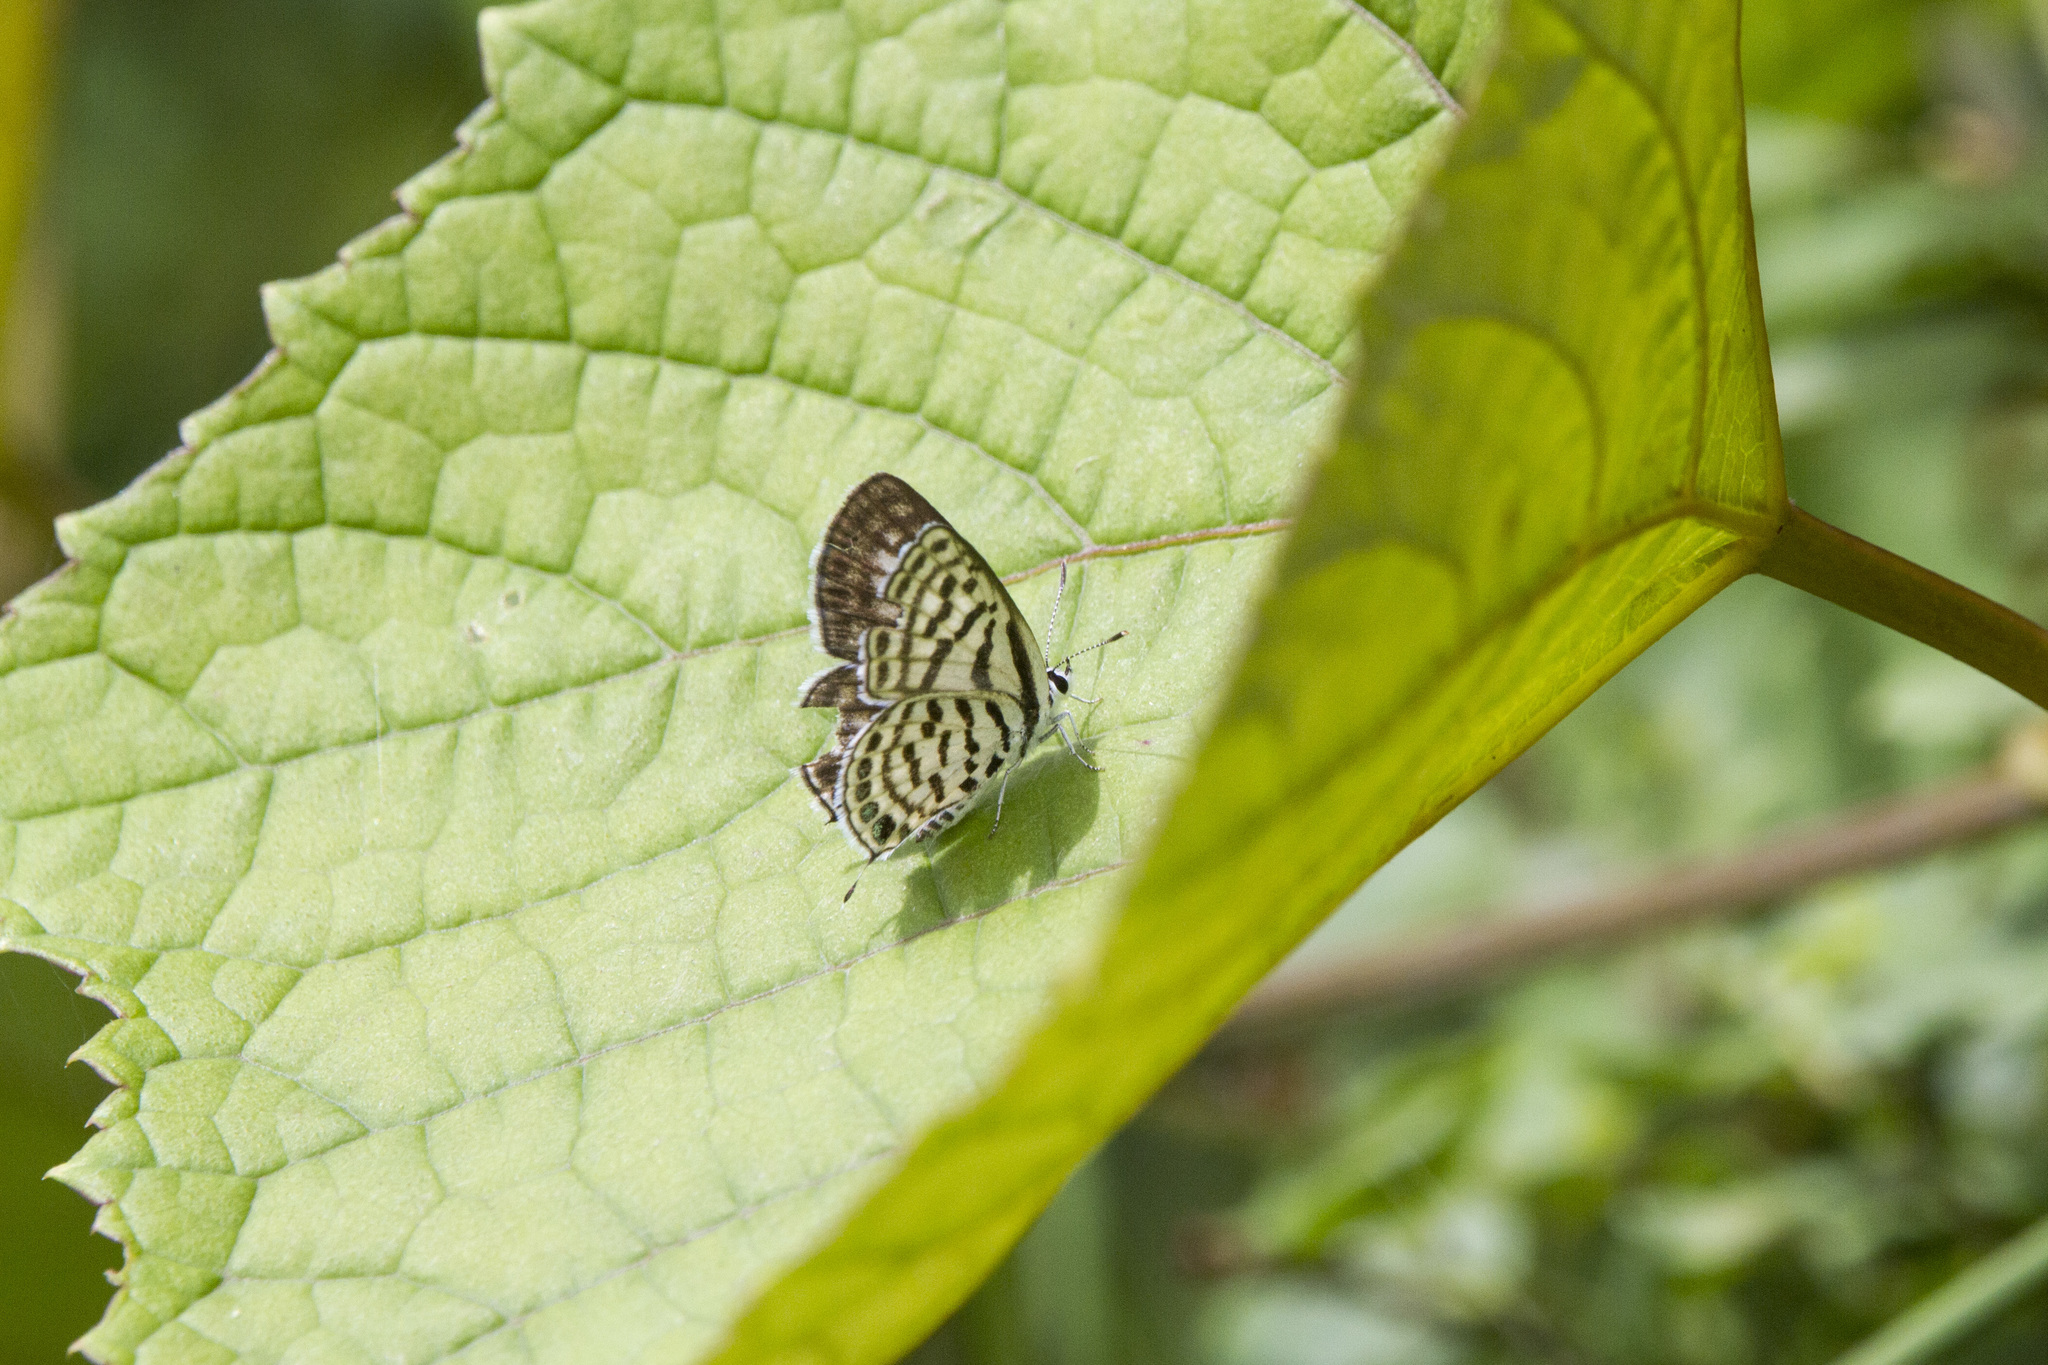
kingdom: Animalia
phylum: Arthropoda
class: Insecta
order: Lepidoptera
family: Lycaenidae
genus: Tarucus
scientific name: Tarucus
